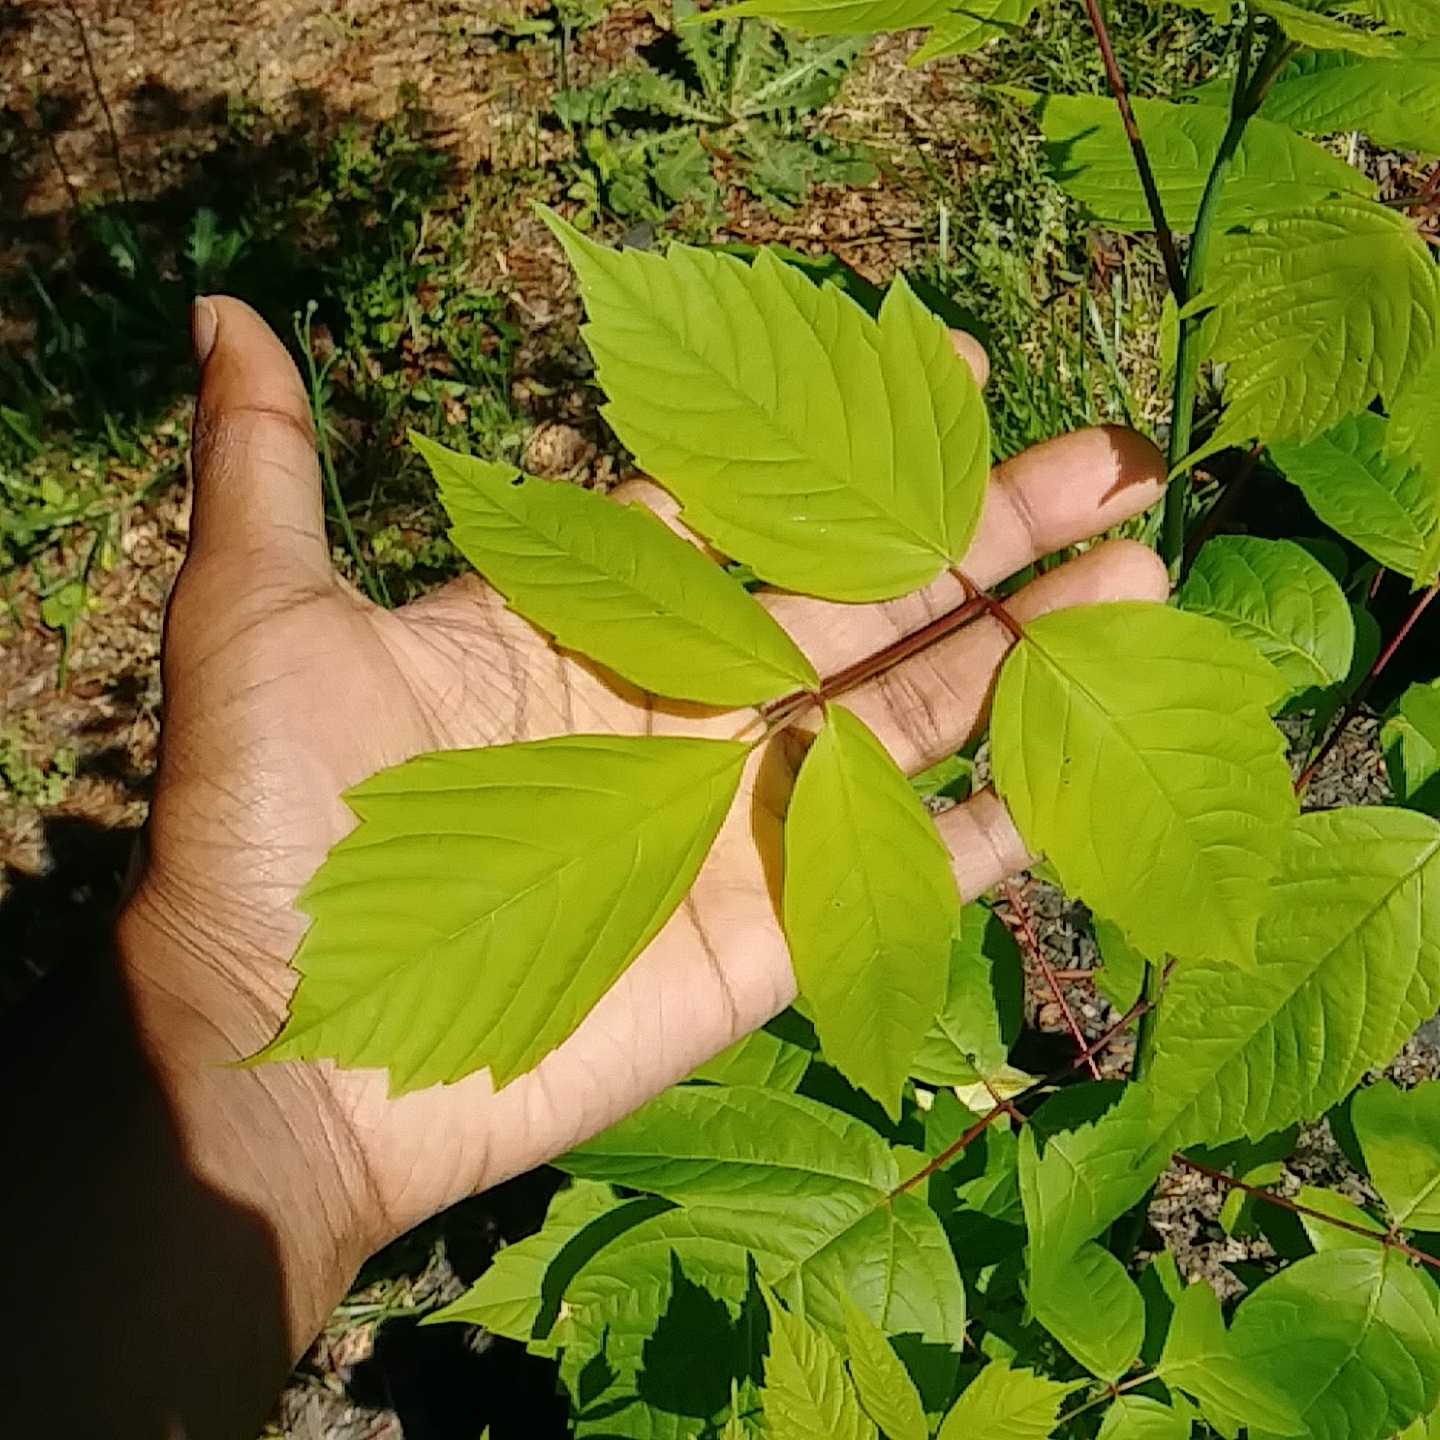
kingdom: Plantae
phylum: Tracheophyta
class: Magnoliopsida
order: Sapindales
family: Sapindaceae
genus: Acer
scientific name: Acer negundo
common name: Ashleaf maple
